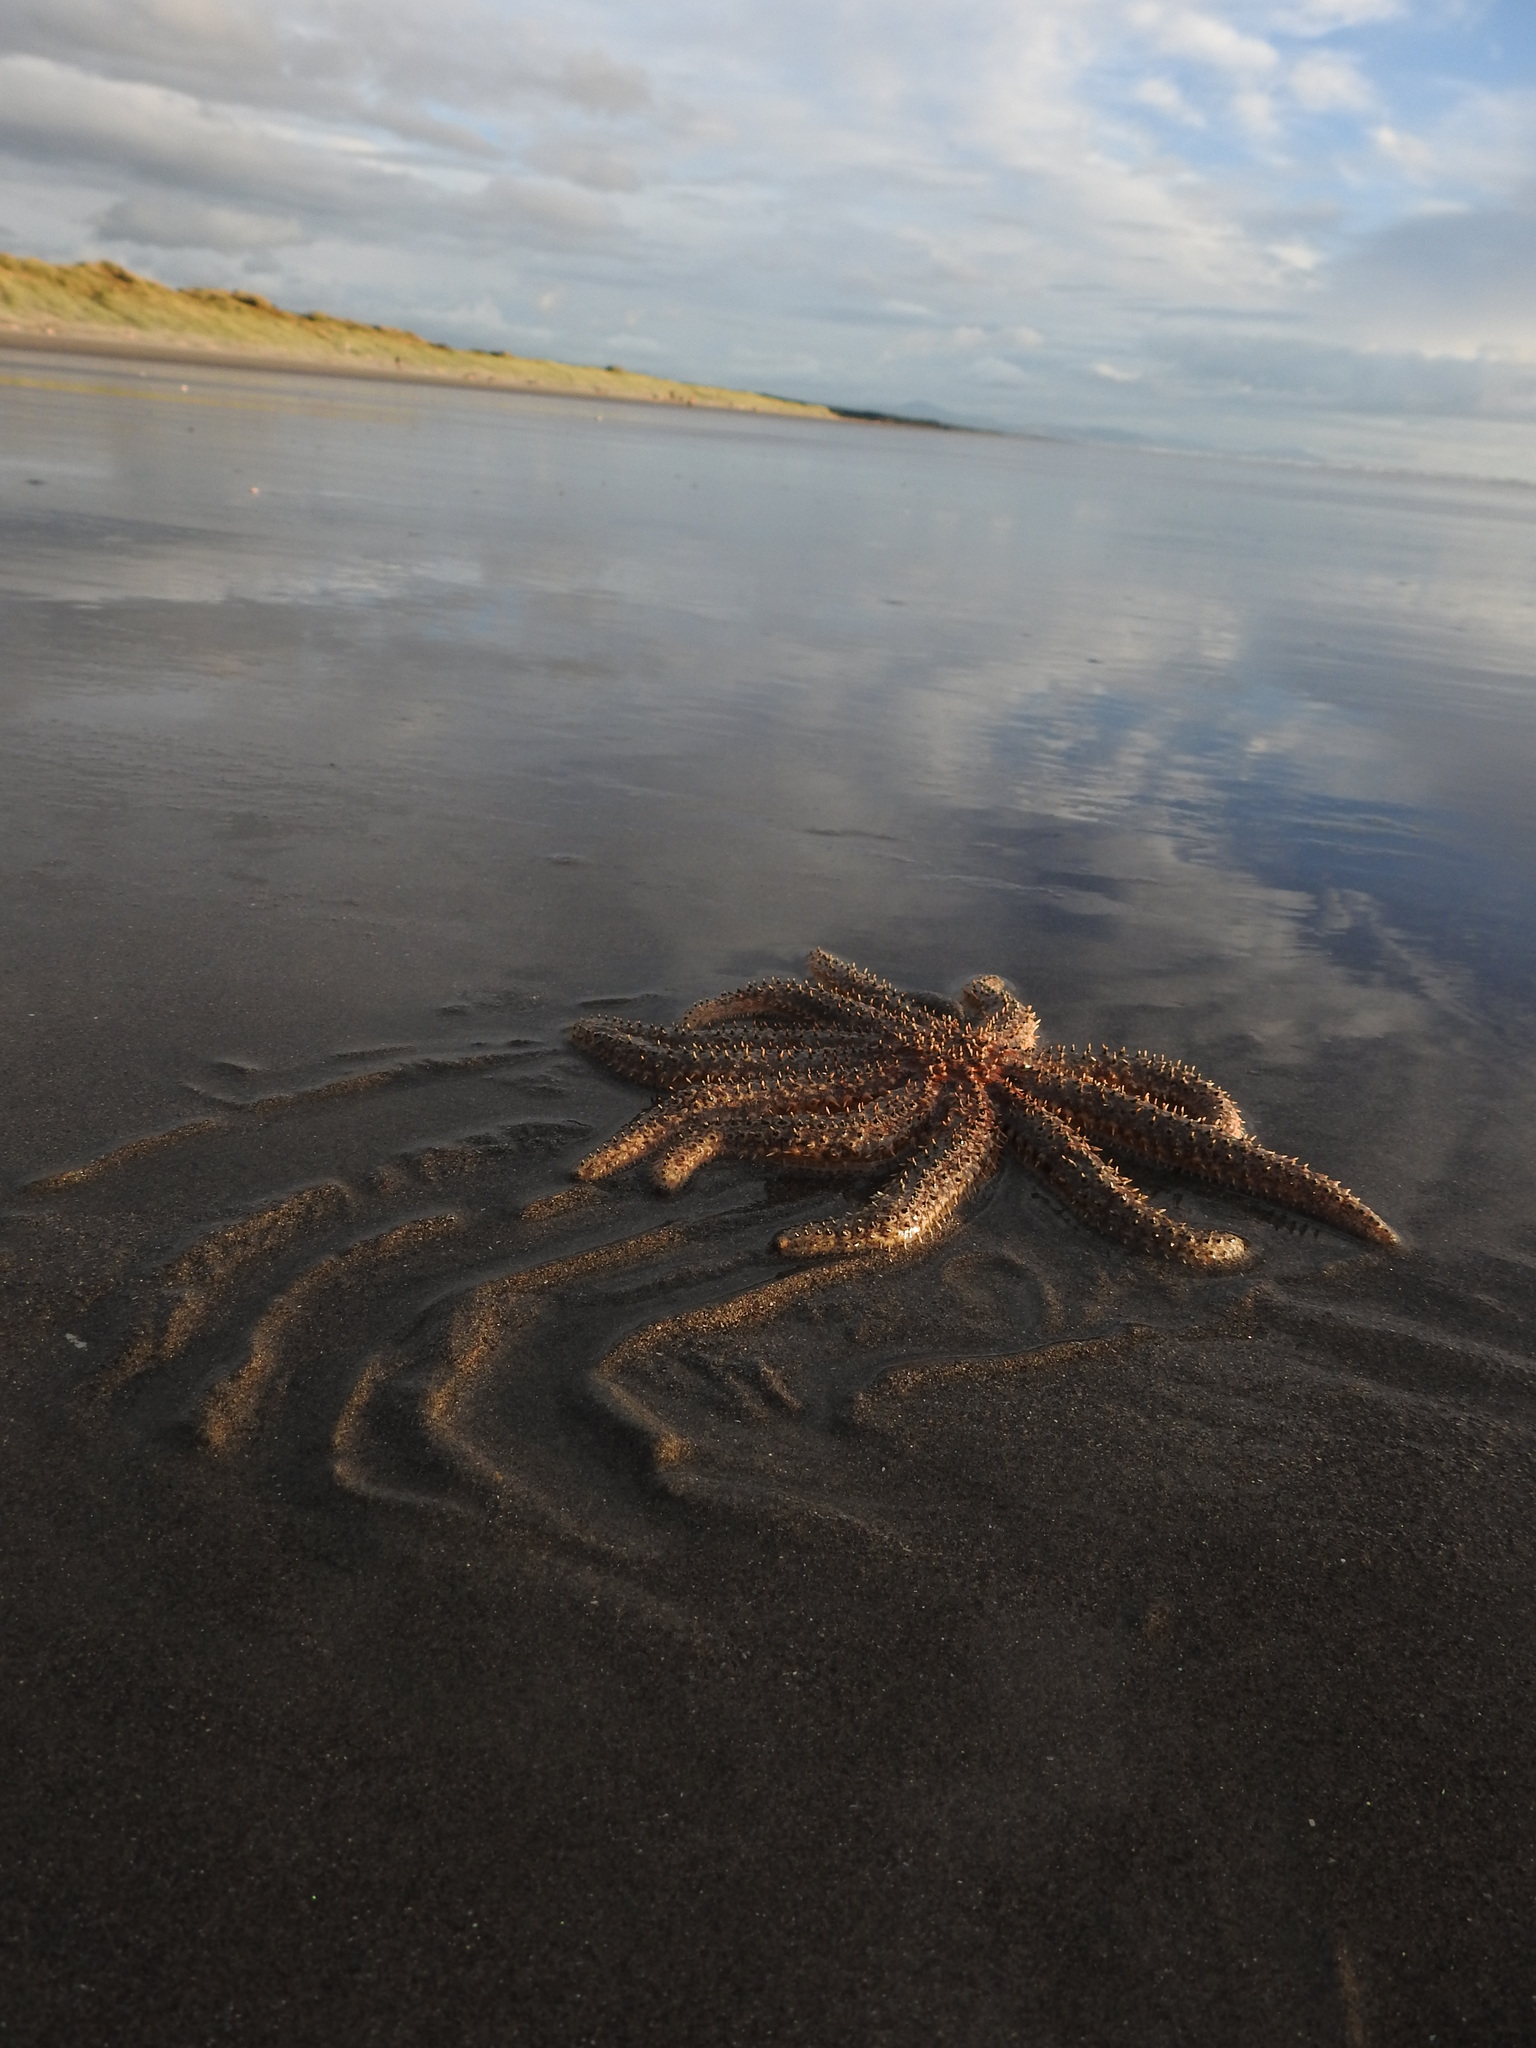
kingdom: Animalia
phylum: Echinodermata
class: Asteroidea
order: Forcipulatida
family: Asteriidae
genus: Coscinasterias
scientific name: Coscinasterias muricata
